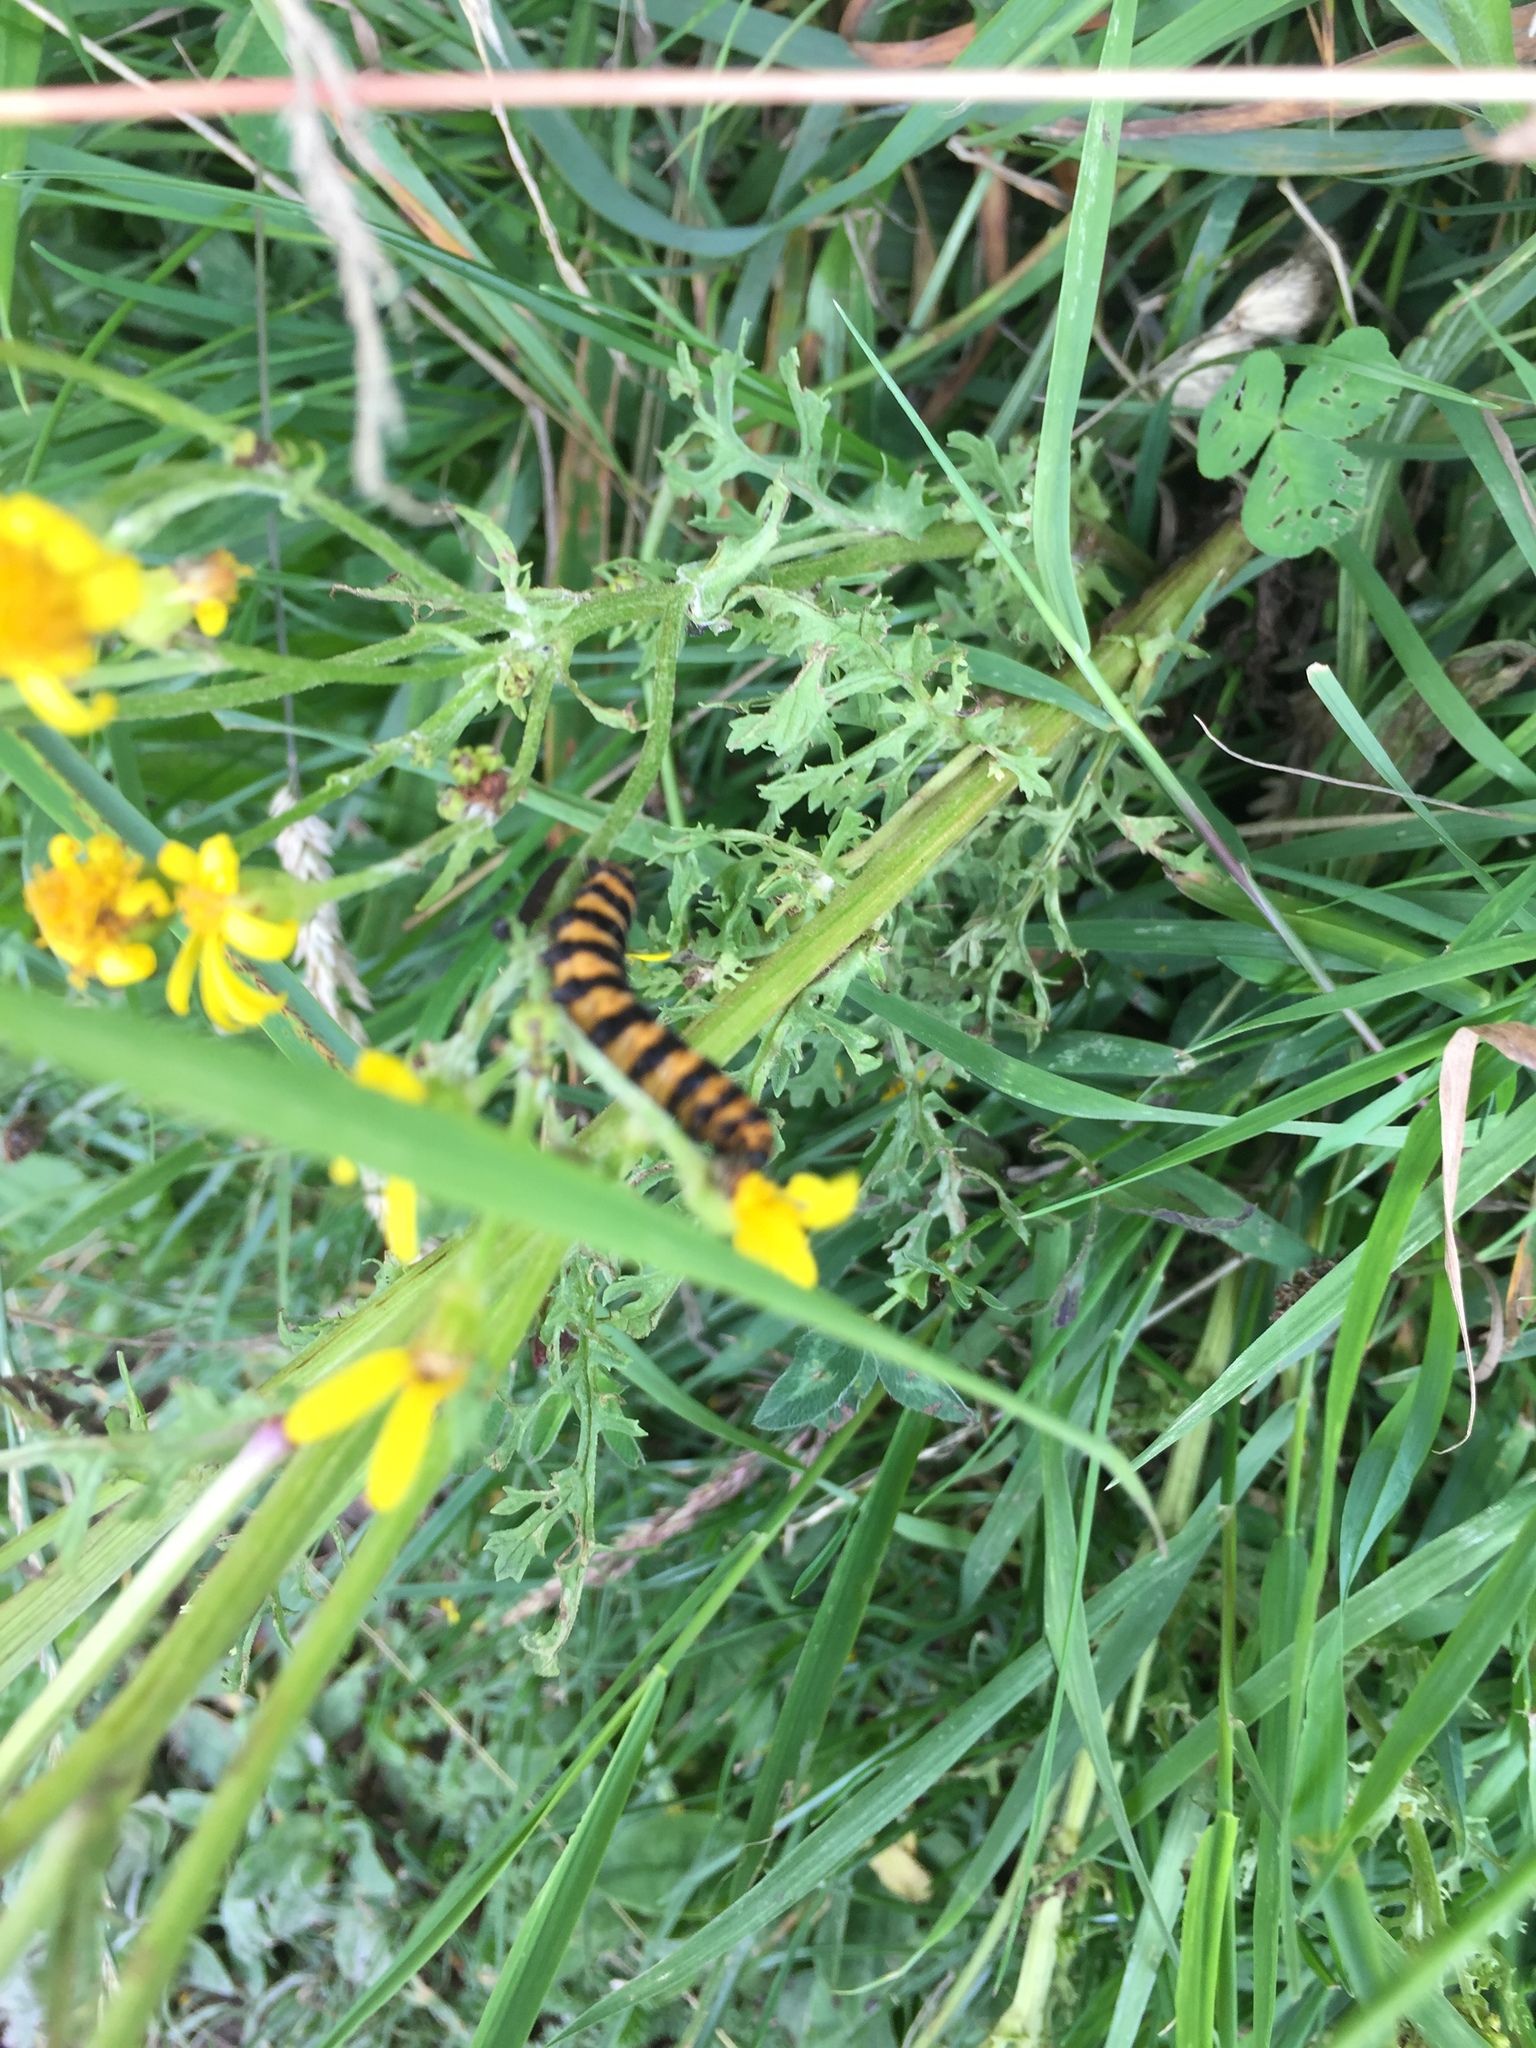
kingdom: Animalia
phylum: Arthropoda
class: Insecta
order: Lepidoptera
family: Erebidae
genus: Tyria
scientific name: Tyria jacobaeae
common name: Cinnabar
